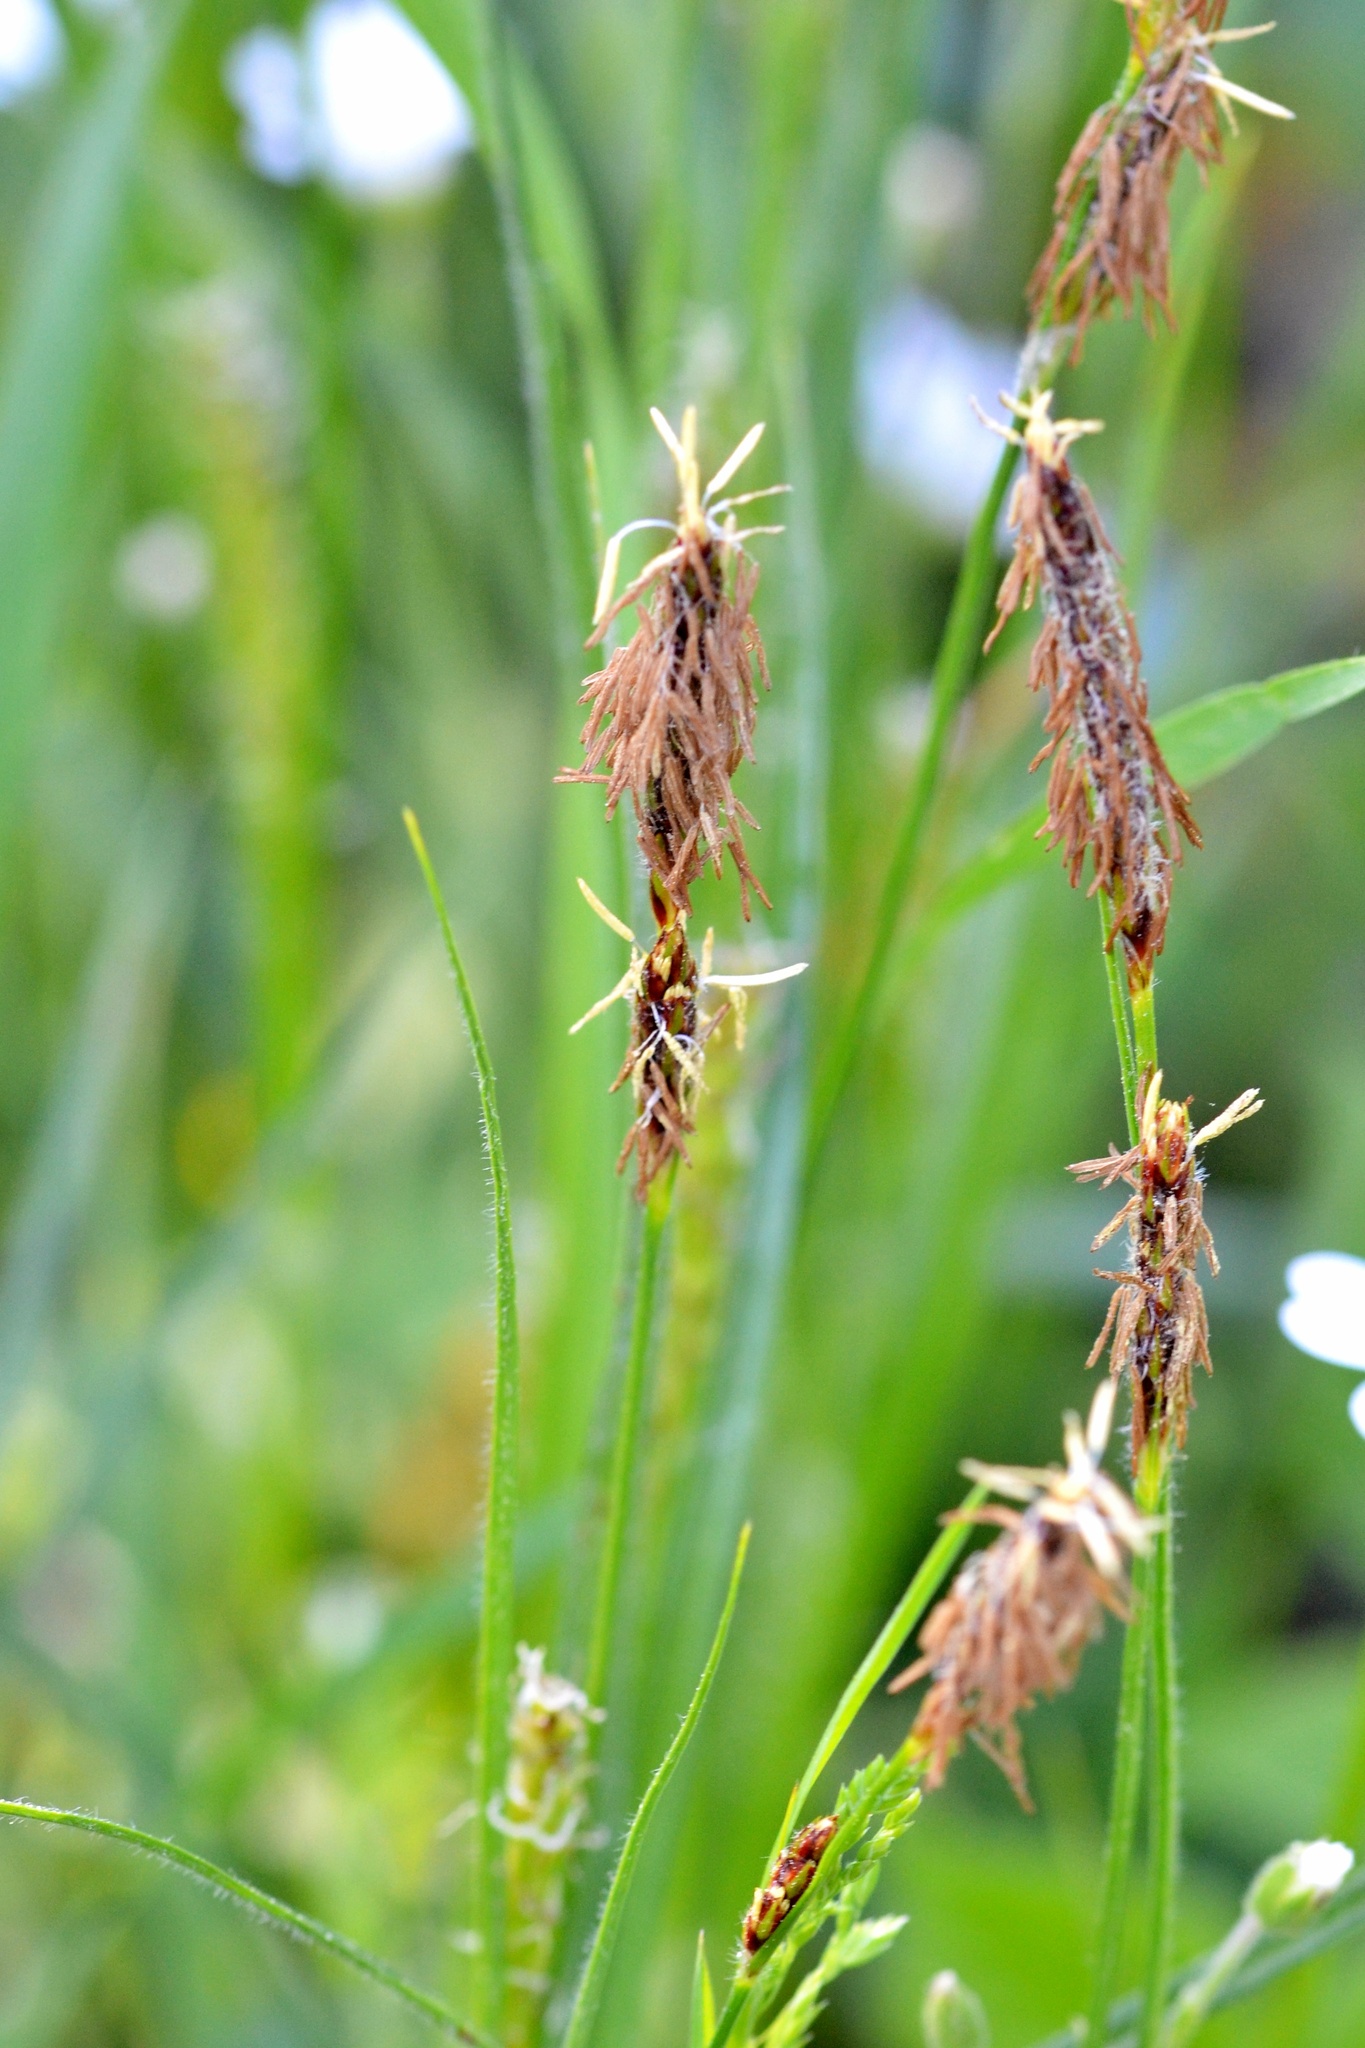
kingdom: Plantae
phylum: Tracheophyta
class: Liliopsida
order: Poales
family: Cyperaceae
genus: Carex
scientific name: Carex hirta
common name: Hairy sedge
